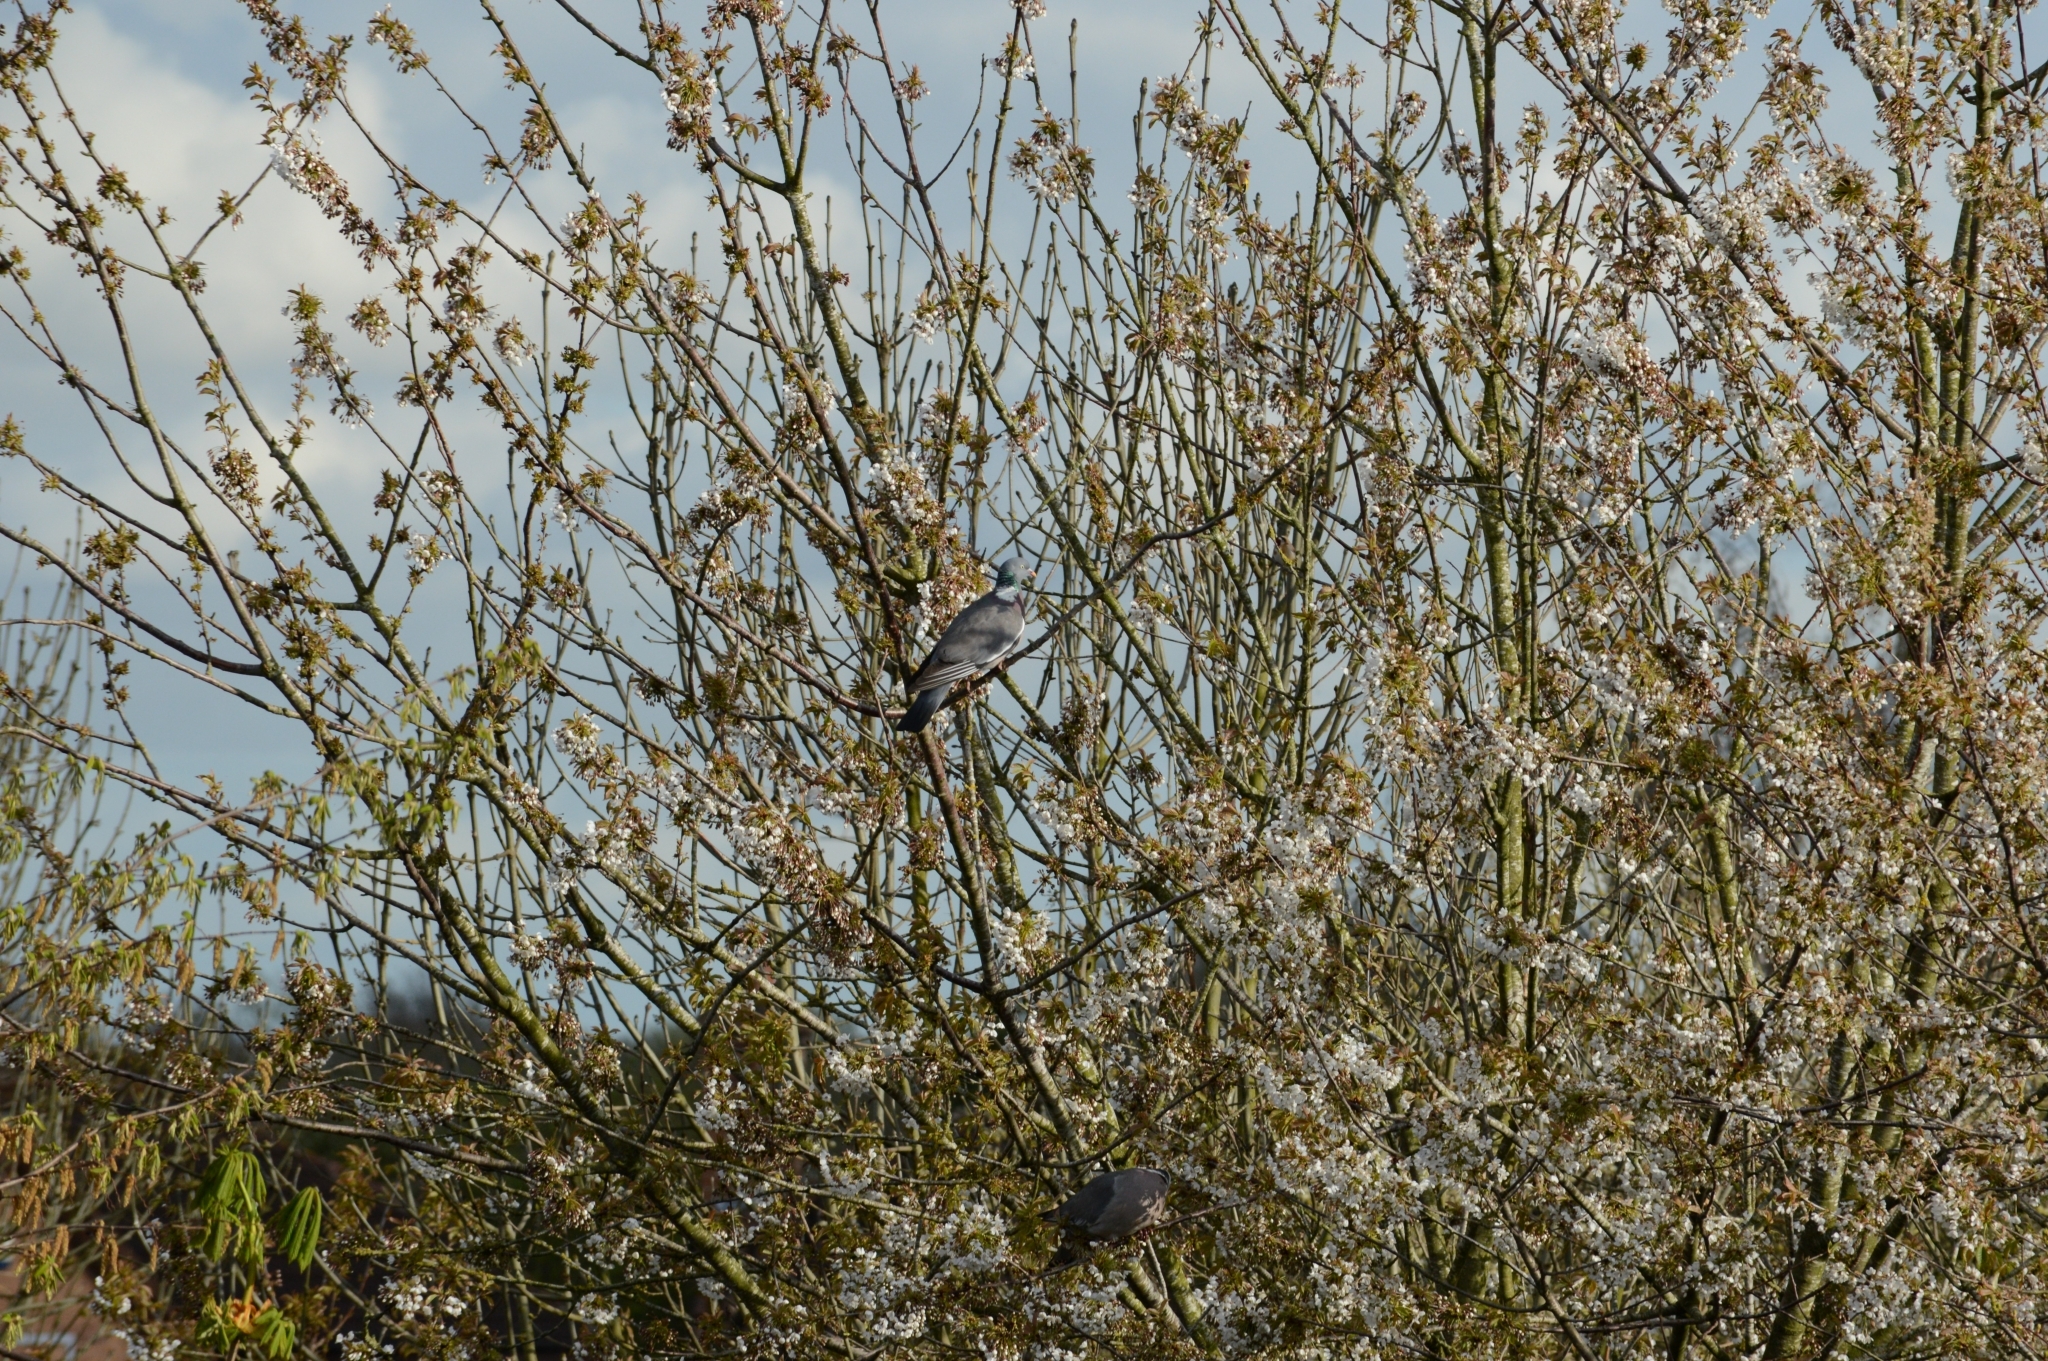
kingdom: Animalia
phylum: Chordata
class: Aves
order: Columbiformes
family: Columbidae
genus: Columba
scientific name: Columba palumbus
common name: Common wood pigeon
